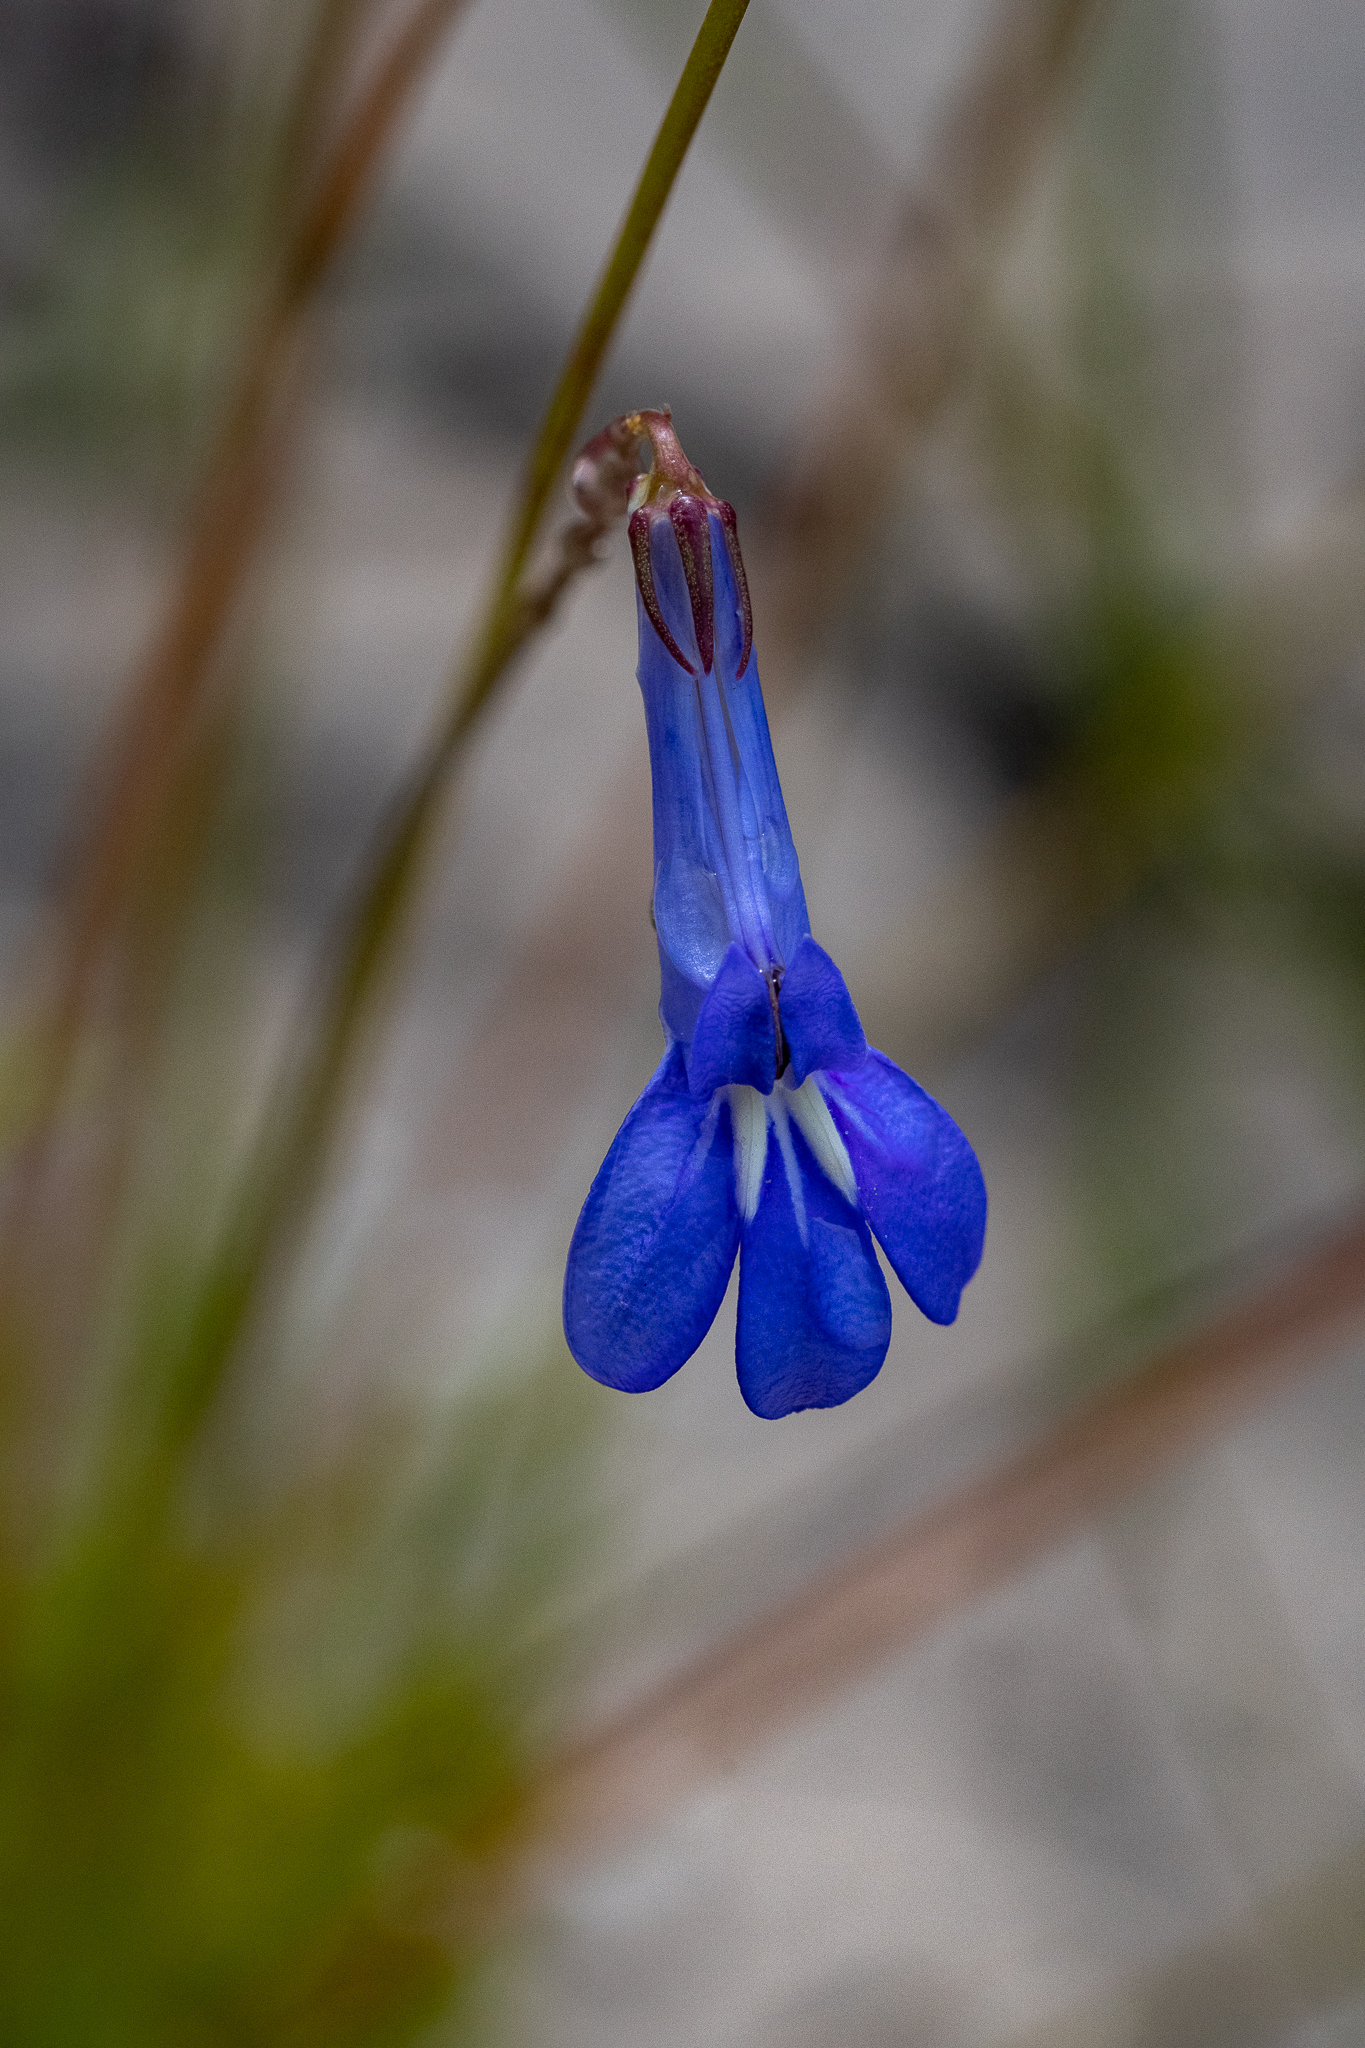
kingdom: Plantae
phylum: Tracheophyta
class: Magnoliopsida
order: Asterales
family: Campanulaceae
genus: Lobelia
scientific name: Lobelia chamaepitys
